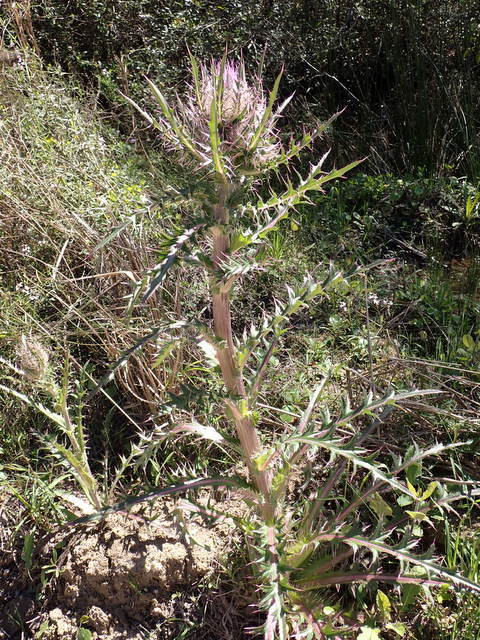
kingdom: Plantae
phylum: Tracheophyta
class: Magnoliopsida
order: Asterales
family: Asteraceae
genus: Cirsium
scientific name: Cirsium horridulum
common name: Bristly thistle
